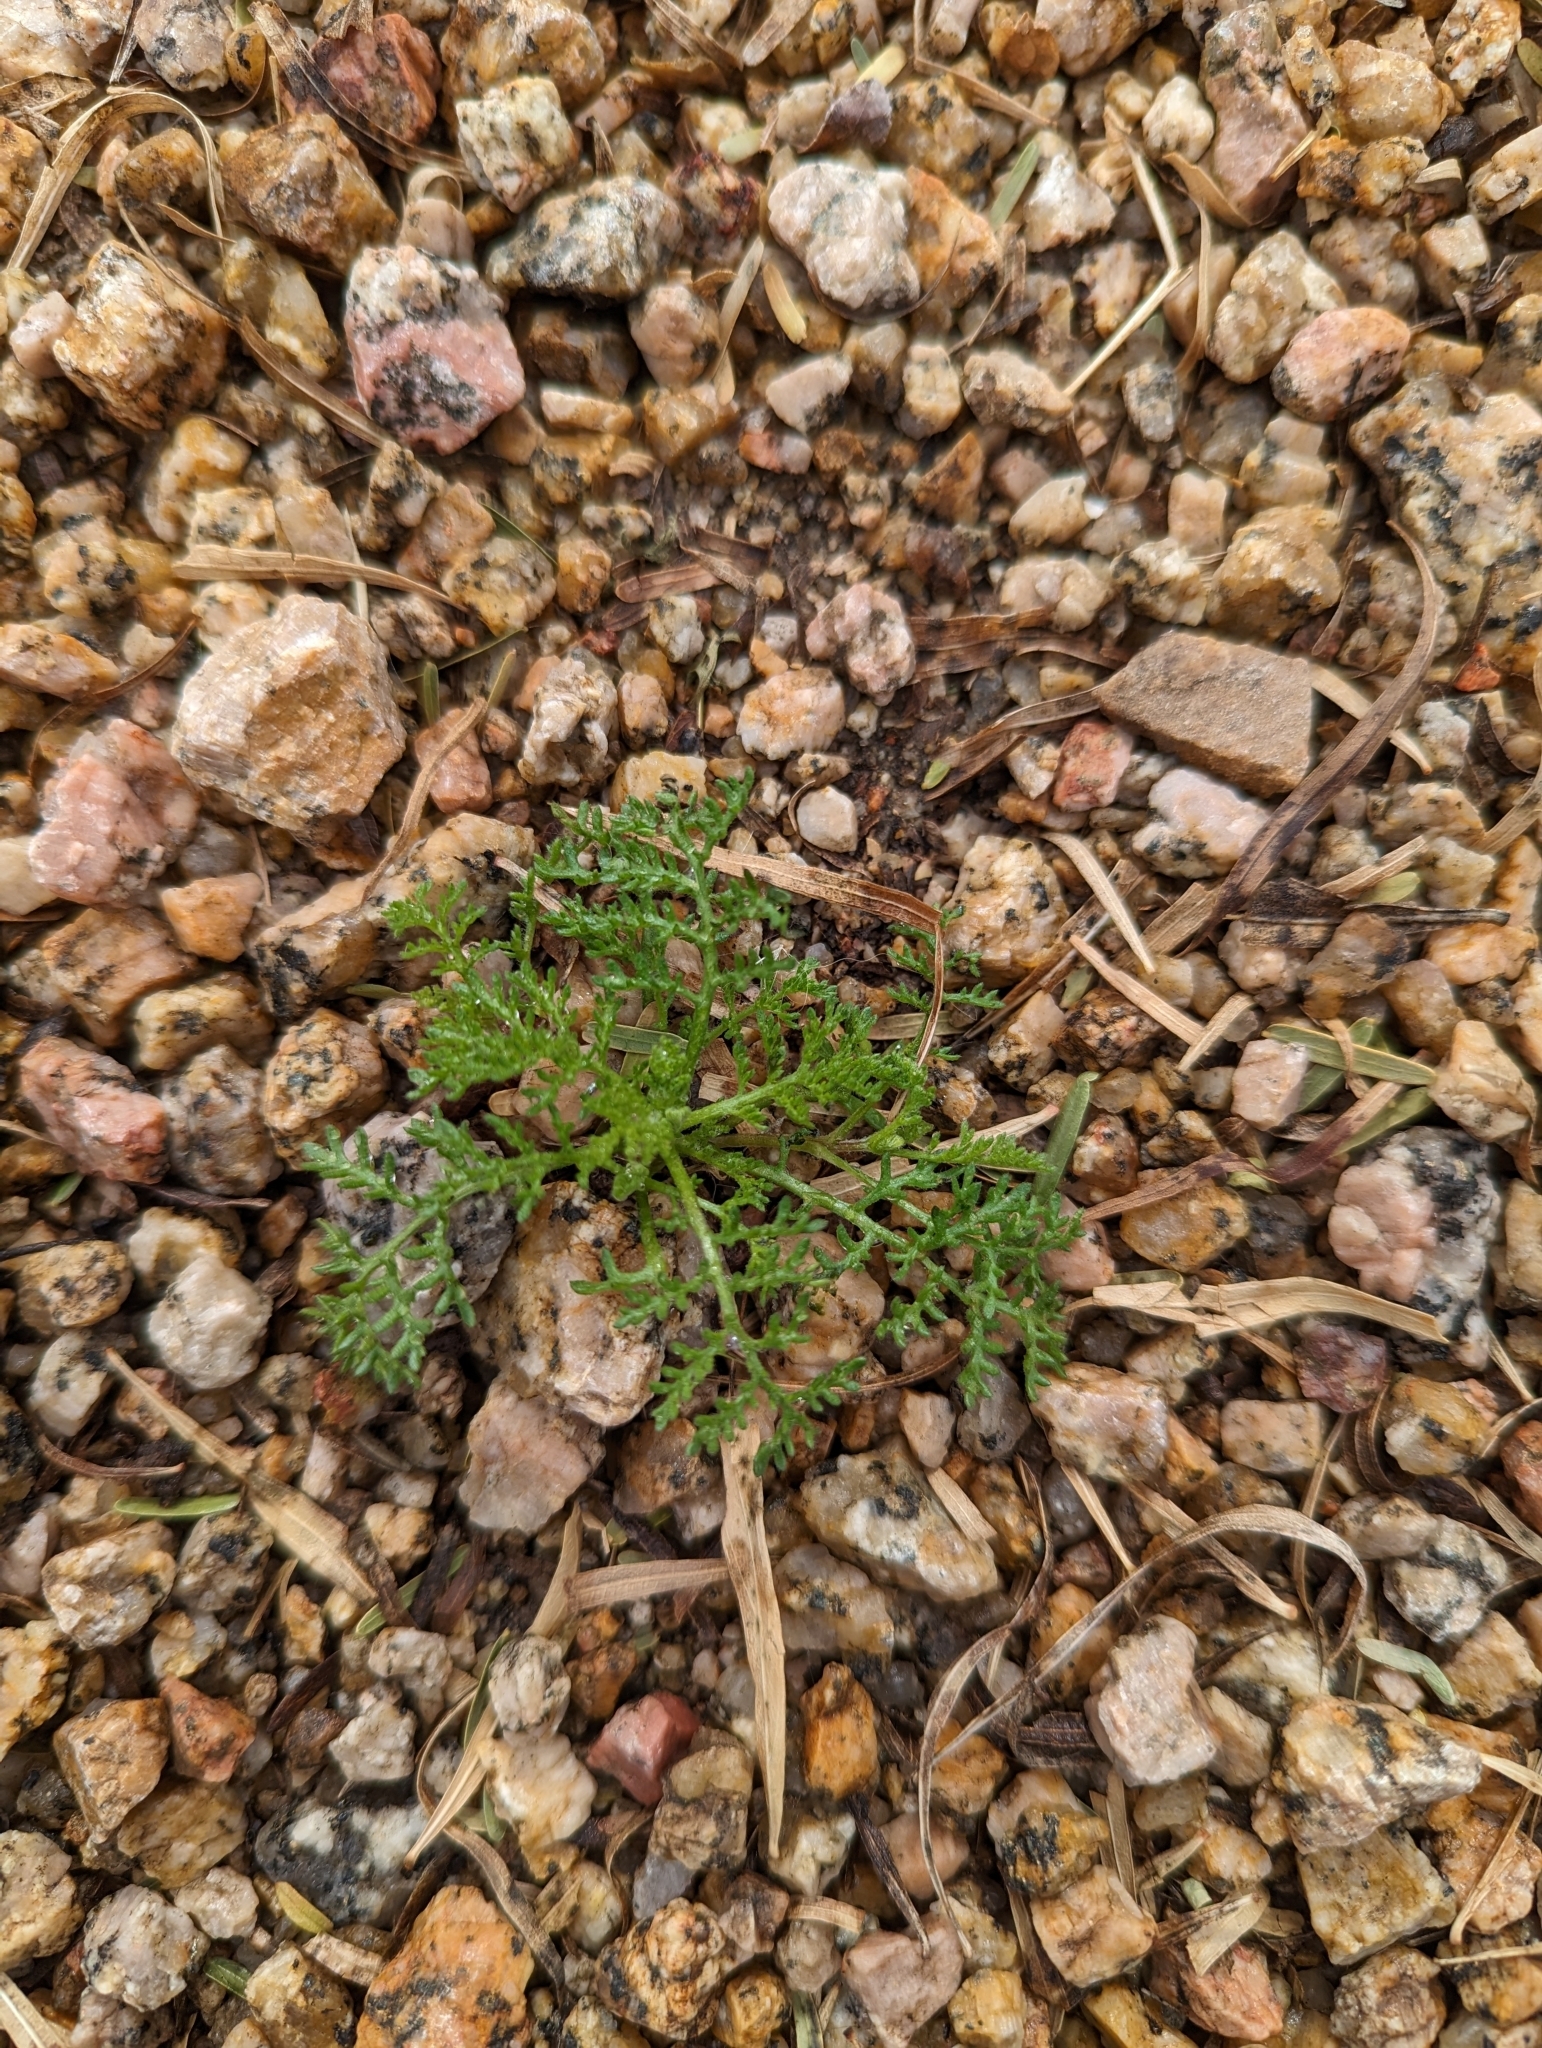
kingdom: Plantae
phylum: Tracheophyta
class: Magnoliopsida
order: Asterales
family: Asteraceae
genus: Oncosiphon
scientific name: Oncosiphon pilulifer
